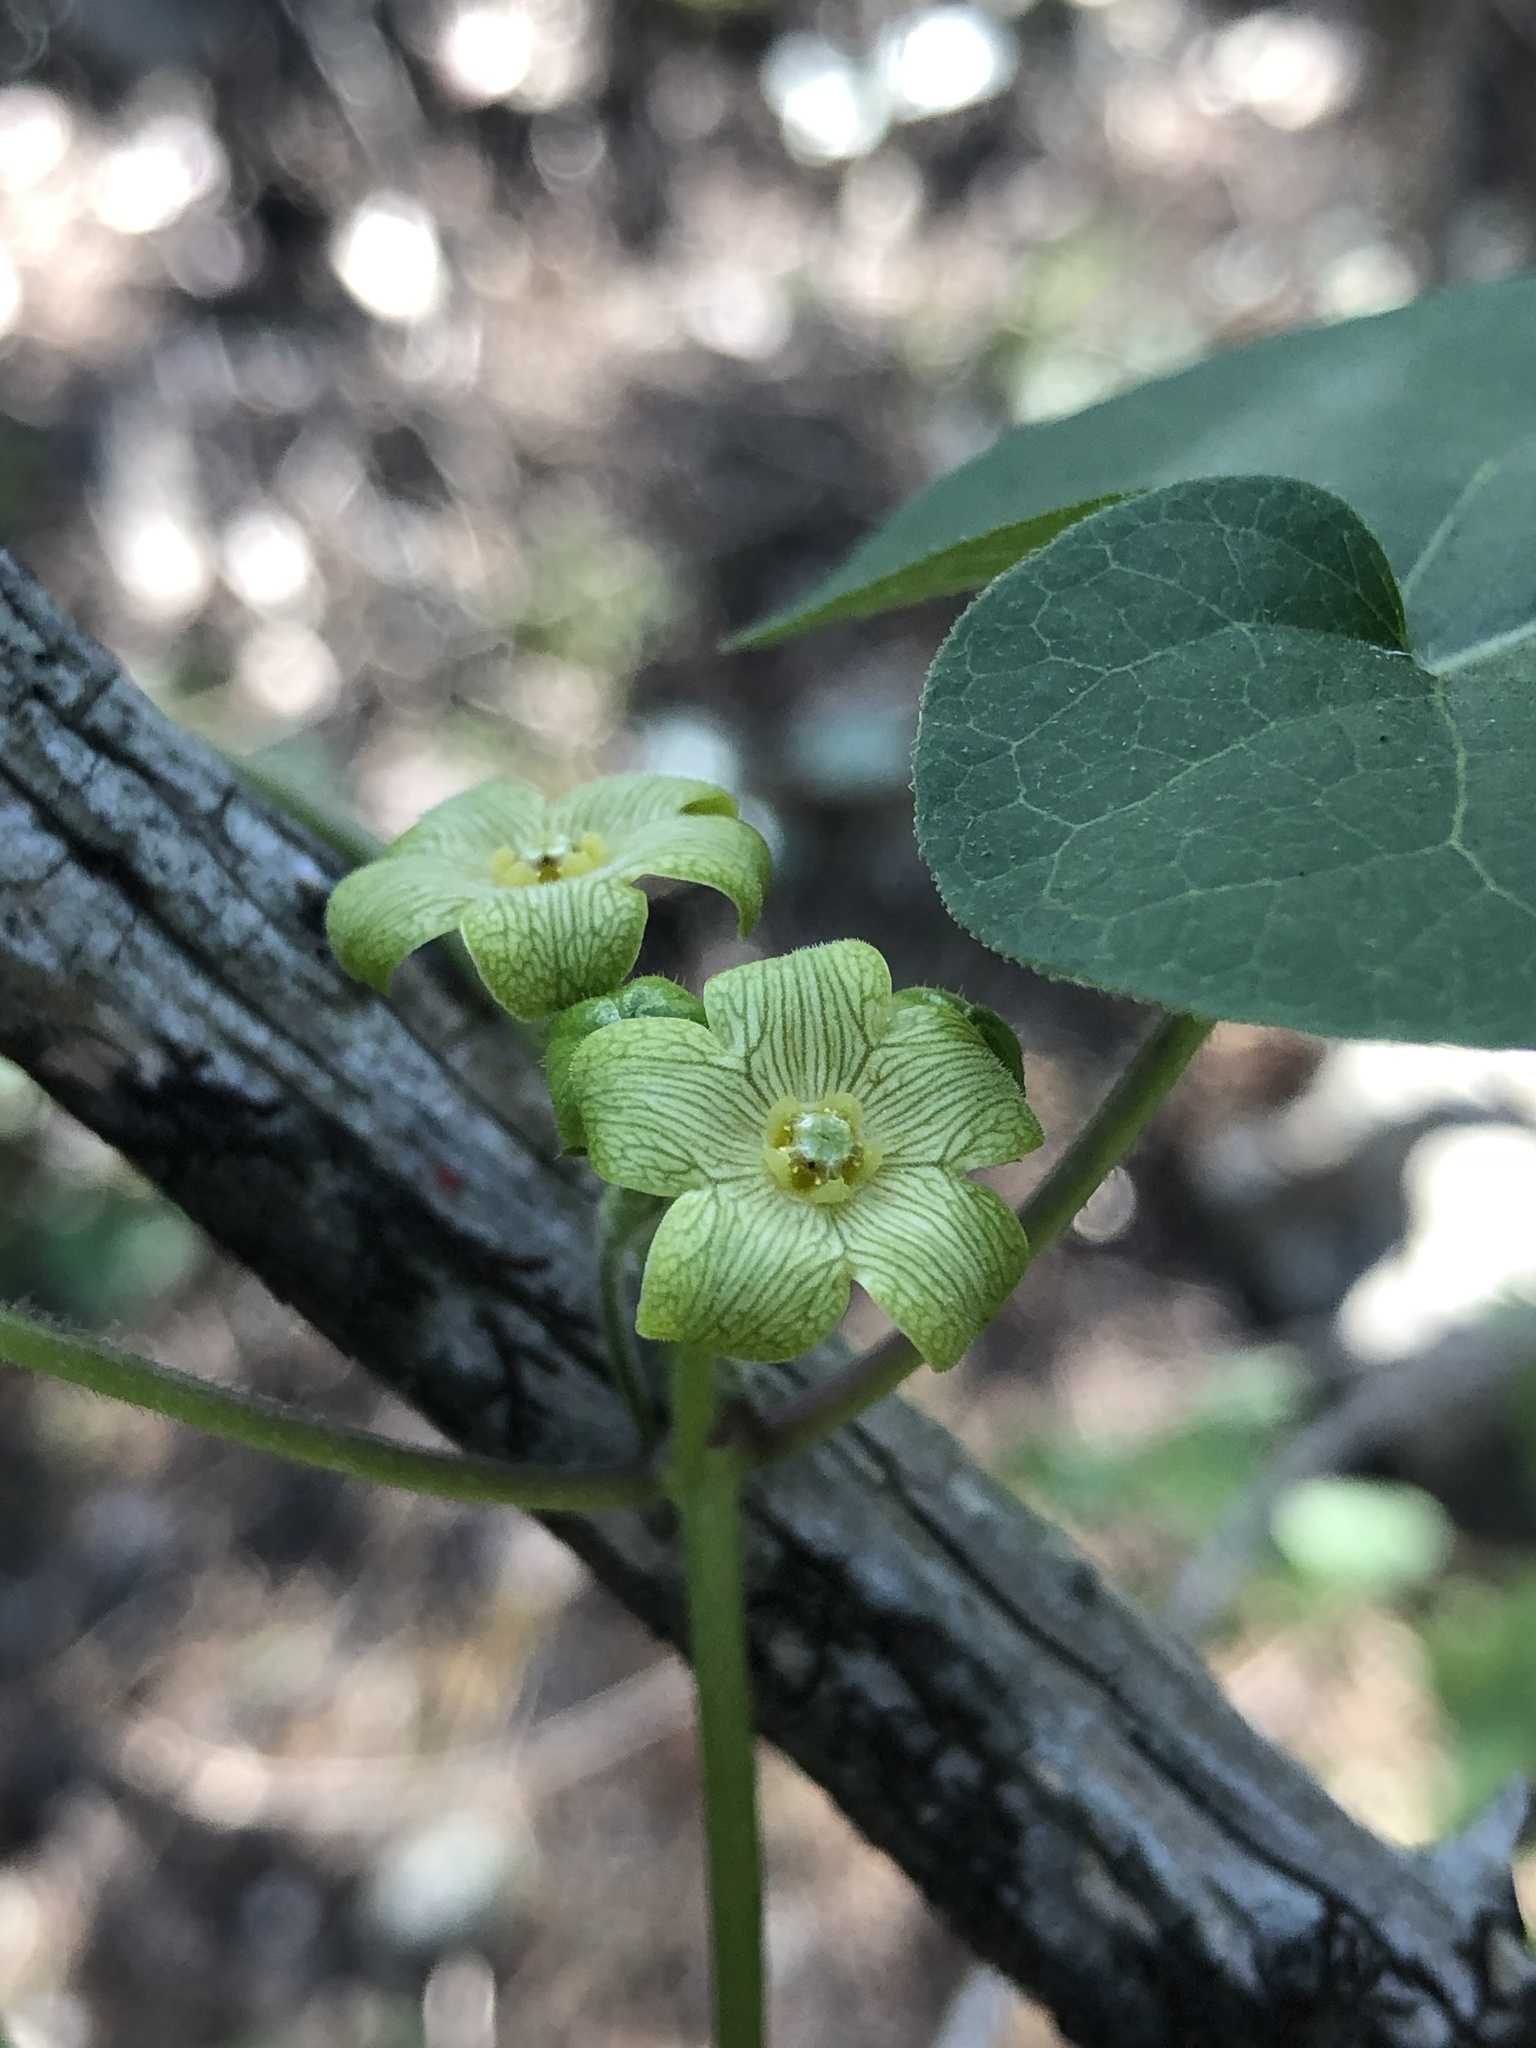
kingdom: Plantae
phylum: Tracheophyta
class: Magnoliopsida
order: Gentianales
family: Apocynaceae
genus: Matelea
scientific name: Matelea edwardsensis
